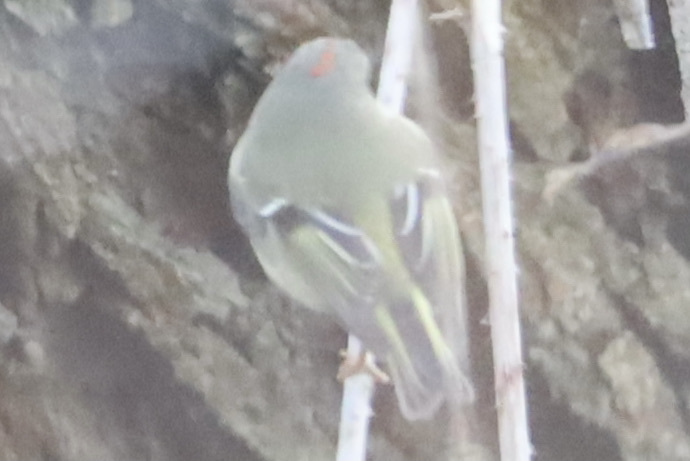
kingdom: Animalia
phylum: Chordata
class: Aves
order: Passeriformes
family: Regulidae
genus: Regulus
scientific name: Regulus calendula
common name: Ruby-crowned kinglet
